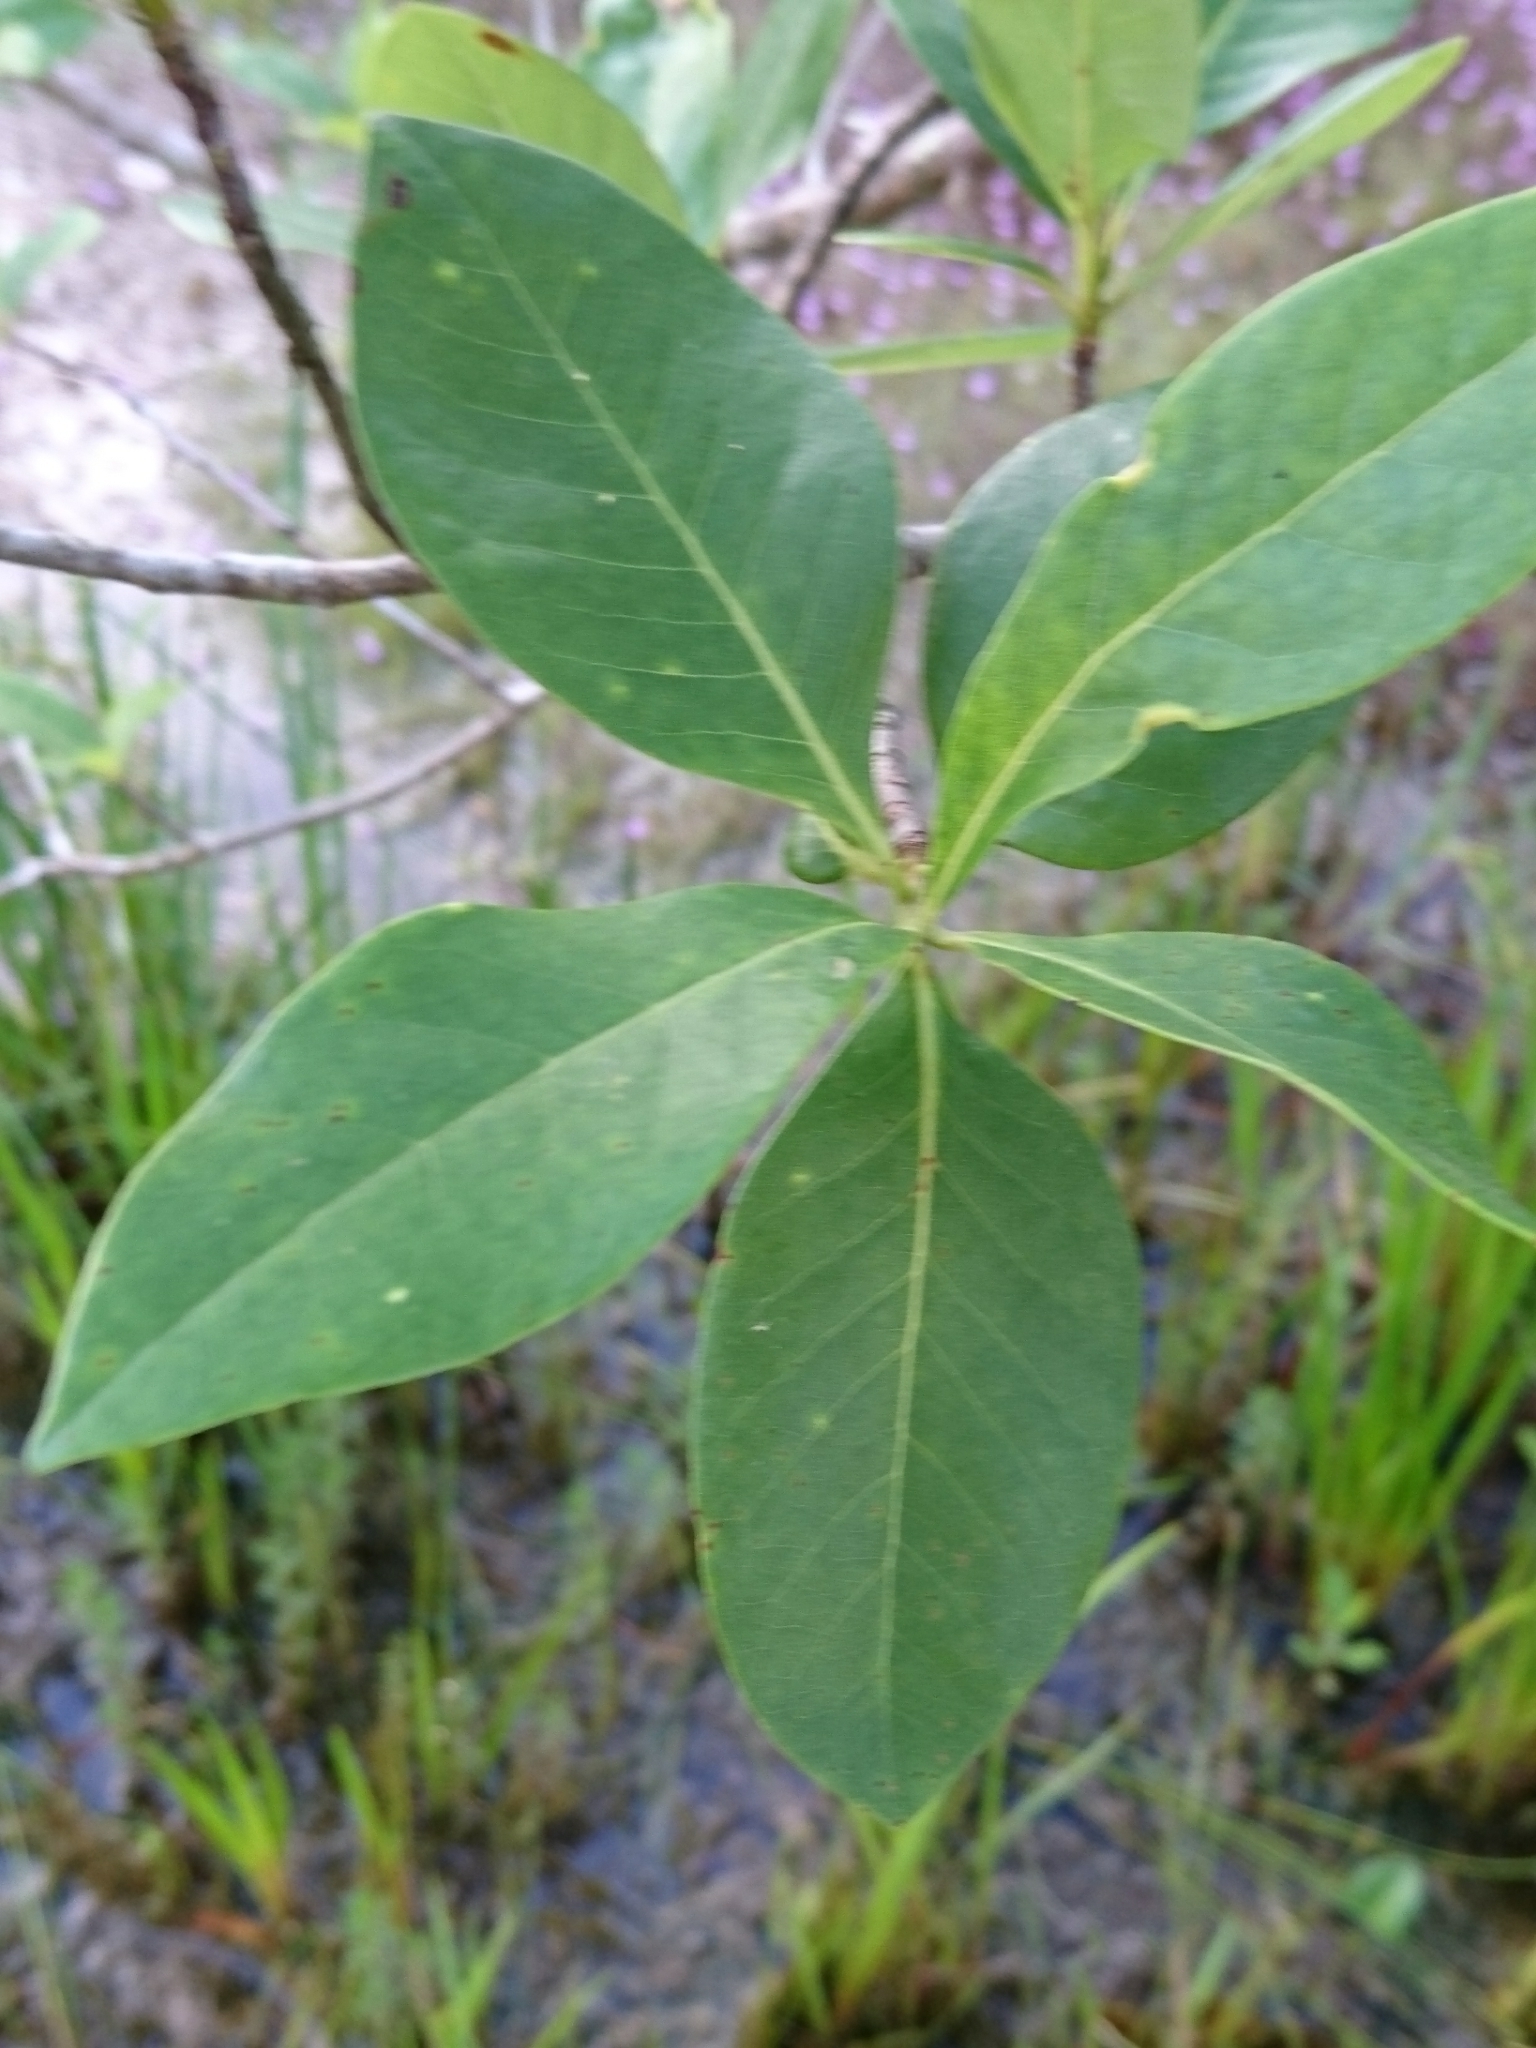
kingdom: Plantae
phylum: Tracheophyta
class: Magnoliopsida
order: Cornales
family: Nyssaceae
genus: Nyssa
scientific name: Nyssa biflora
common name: Swamp blackgum
